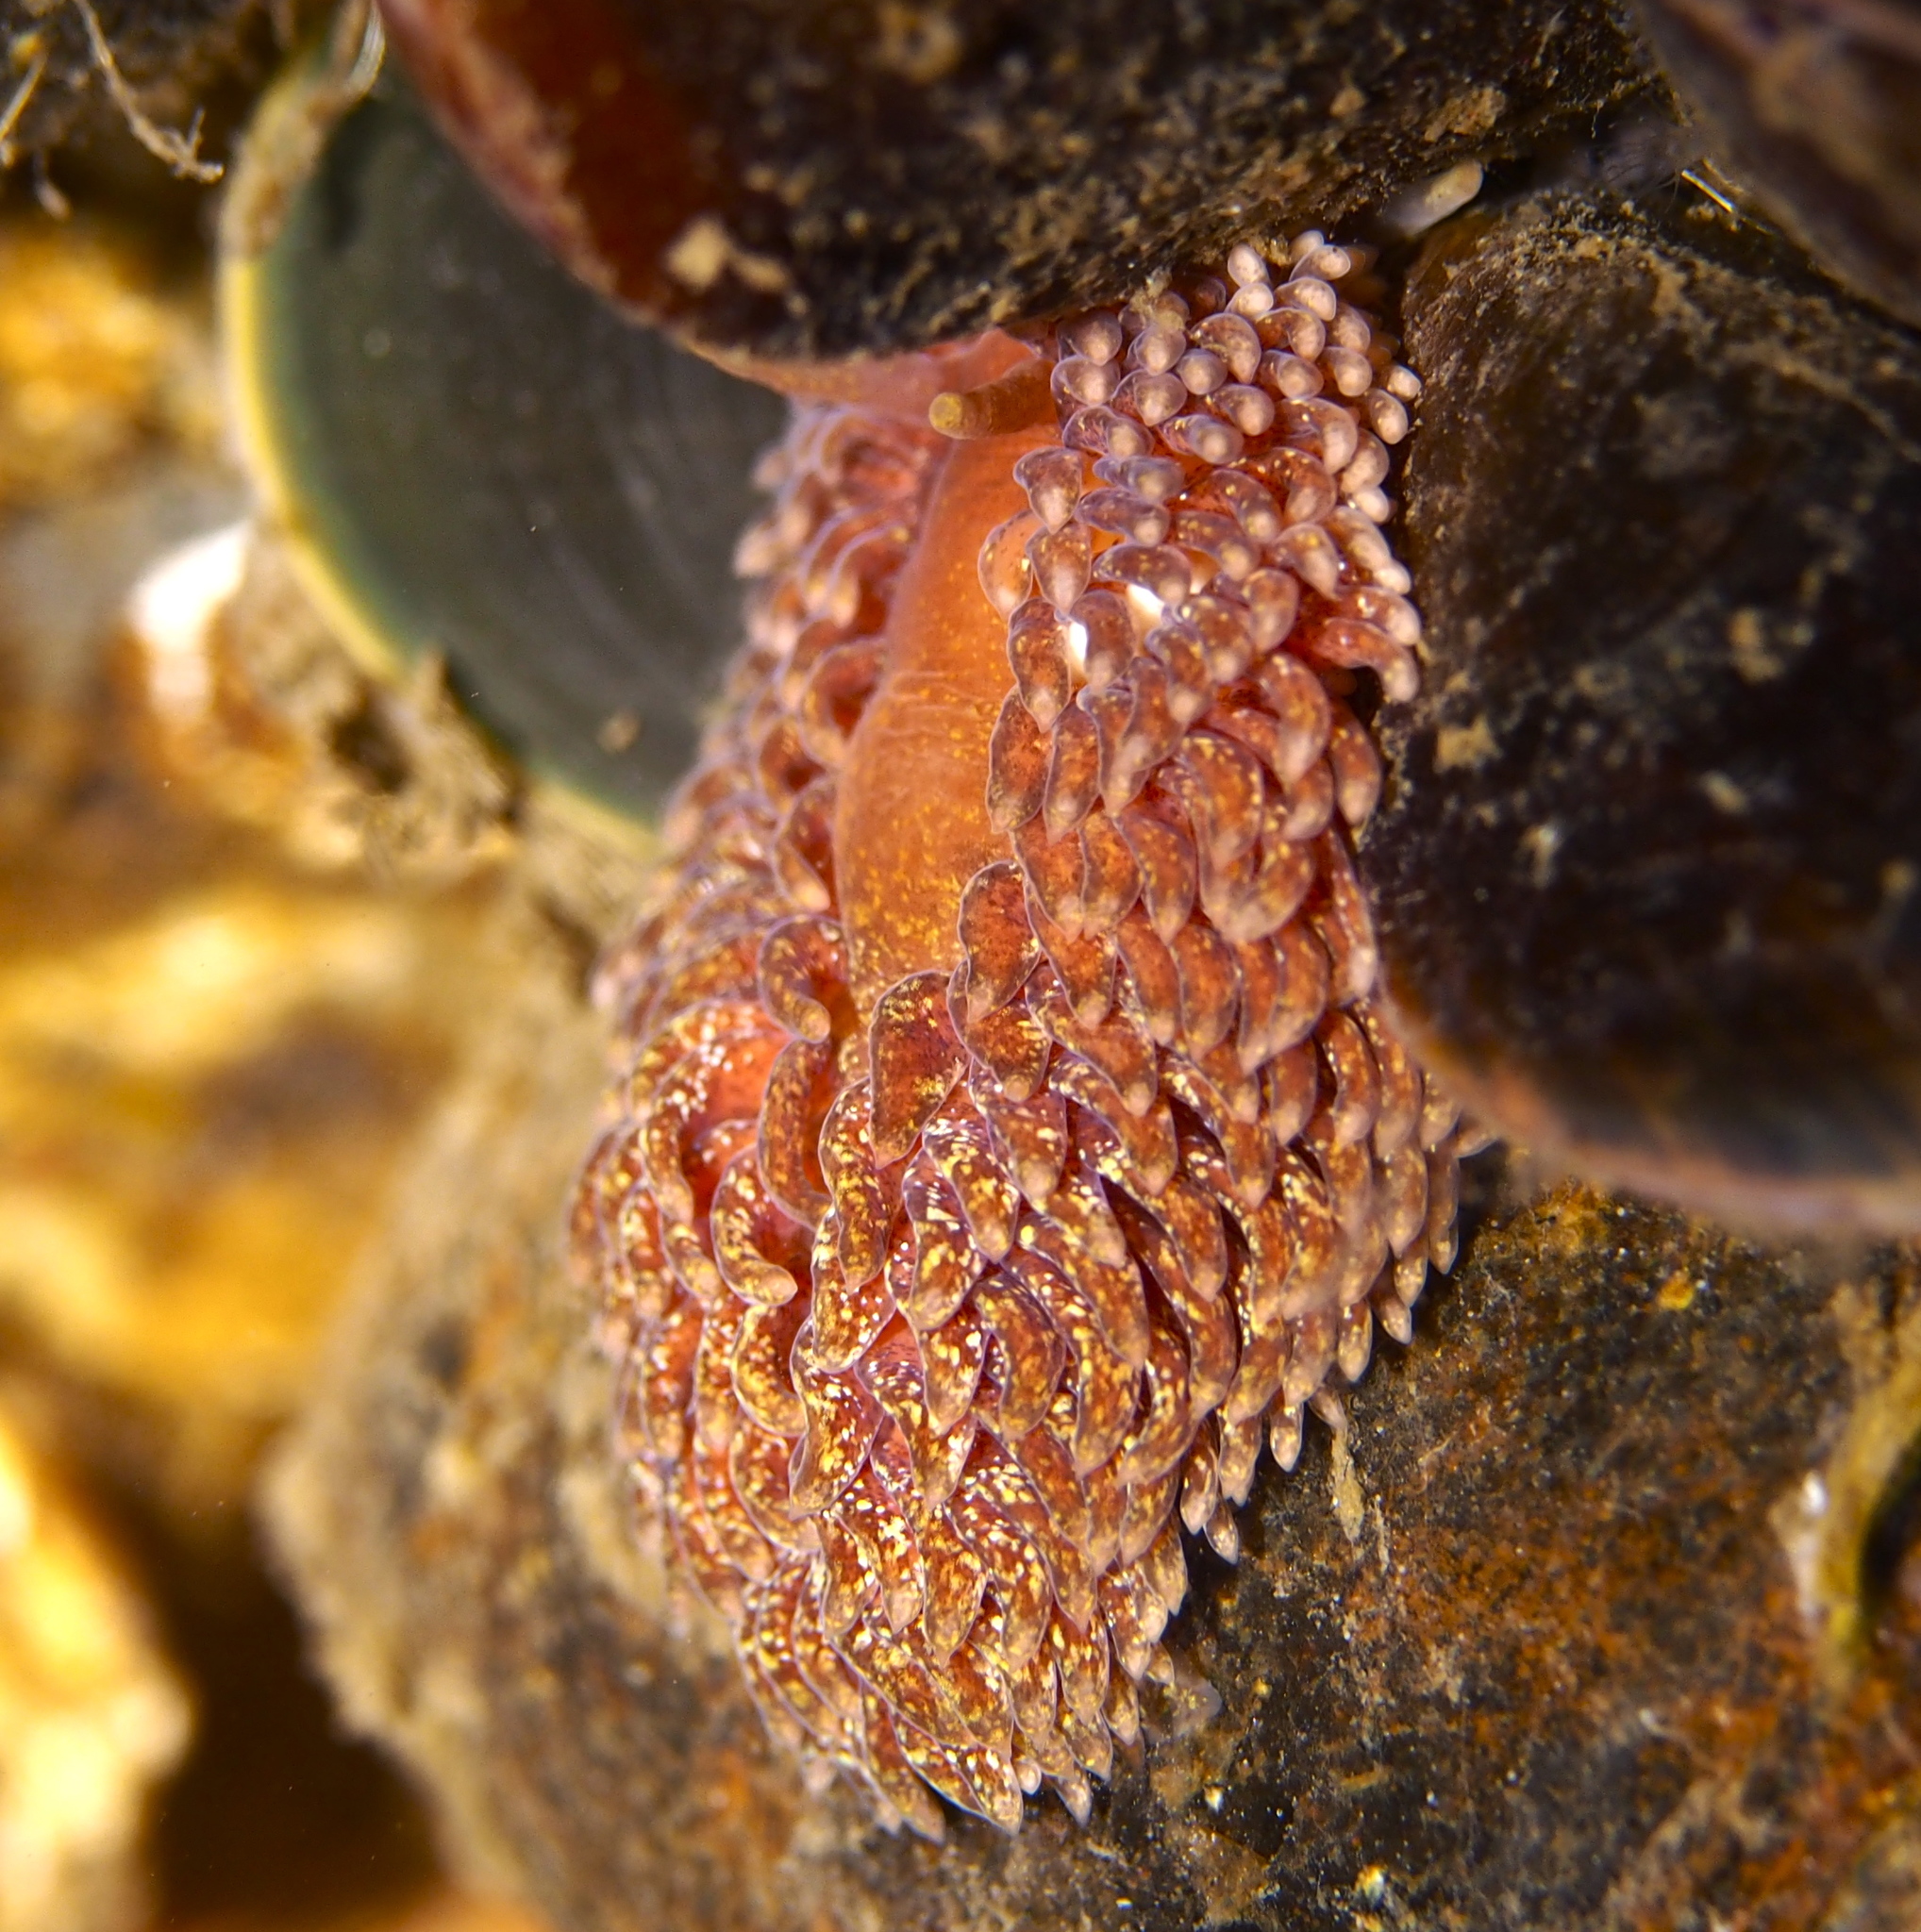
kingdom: Animalia
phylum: Mollusca
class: Gastropoda
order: Nudibranchia
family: Aeolidiidae
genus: Aeolidia
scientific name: Aeolidia papillosa
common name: Common grey sea slug
